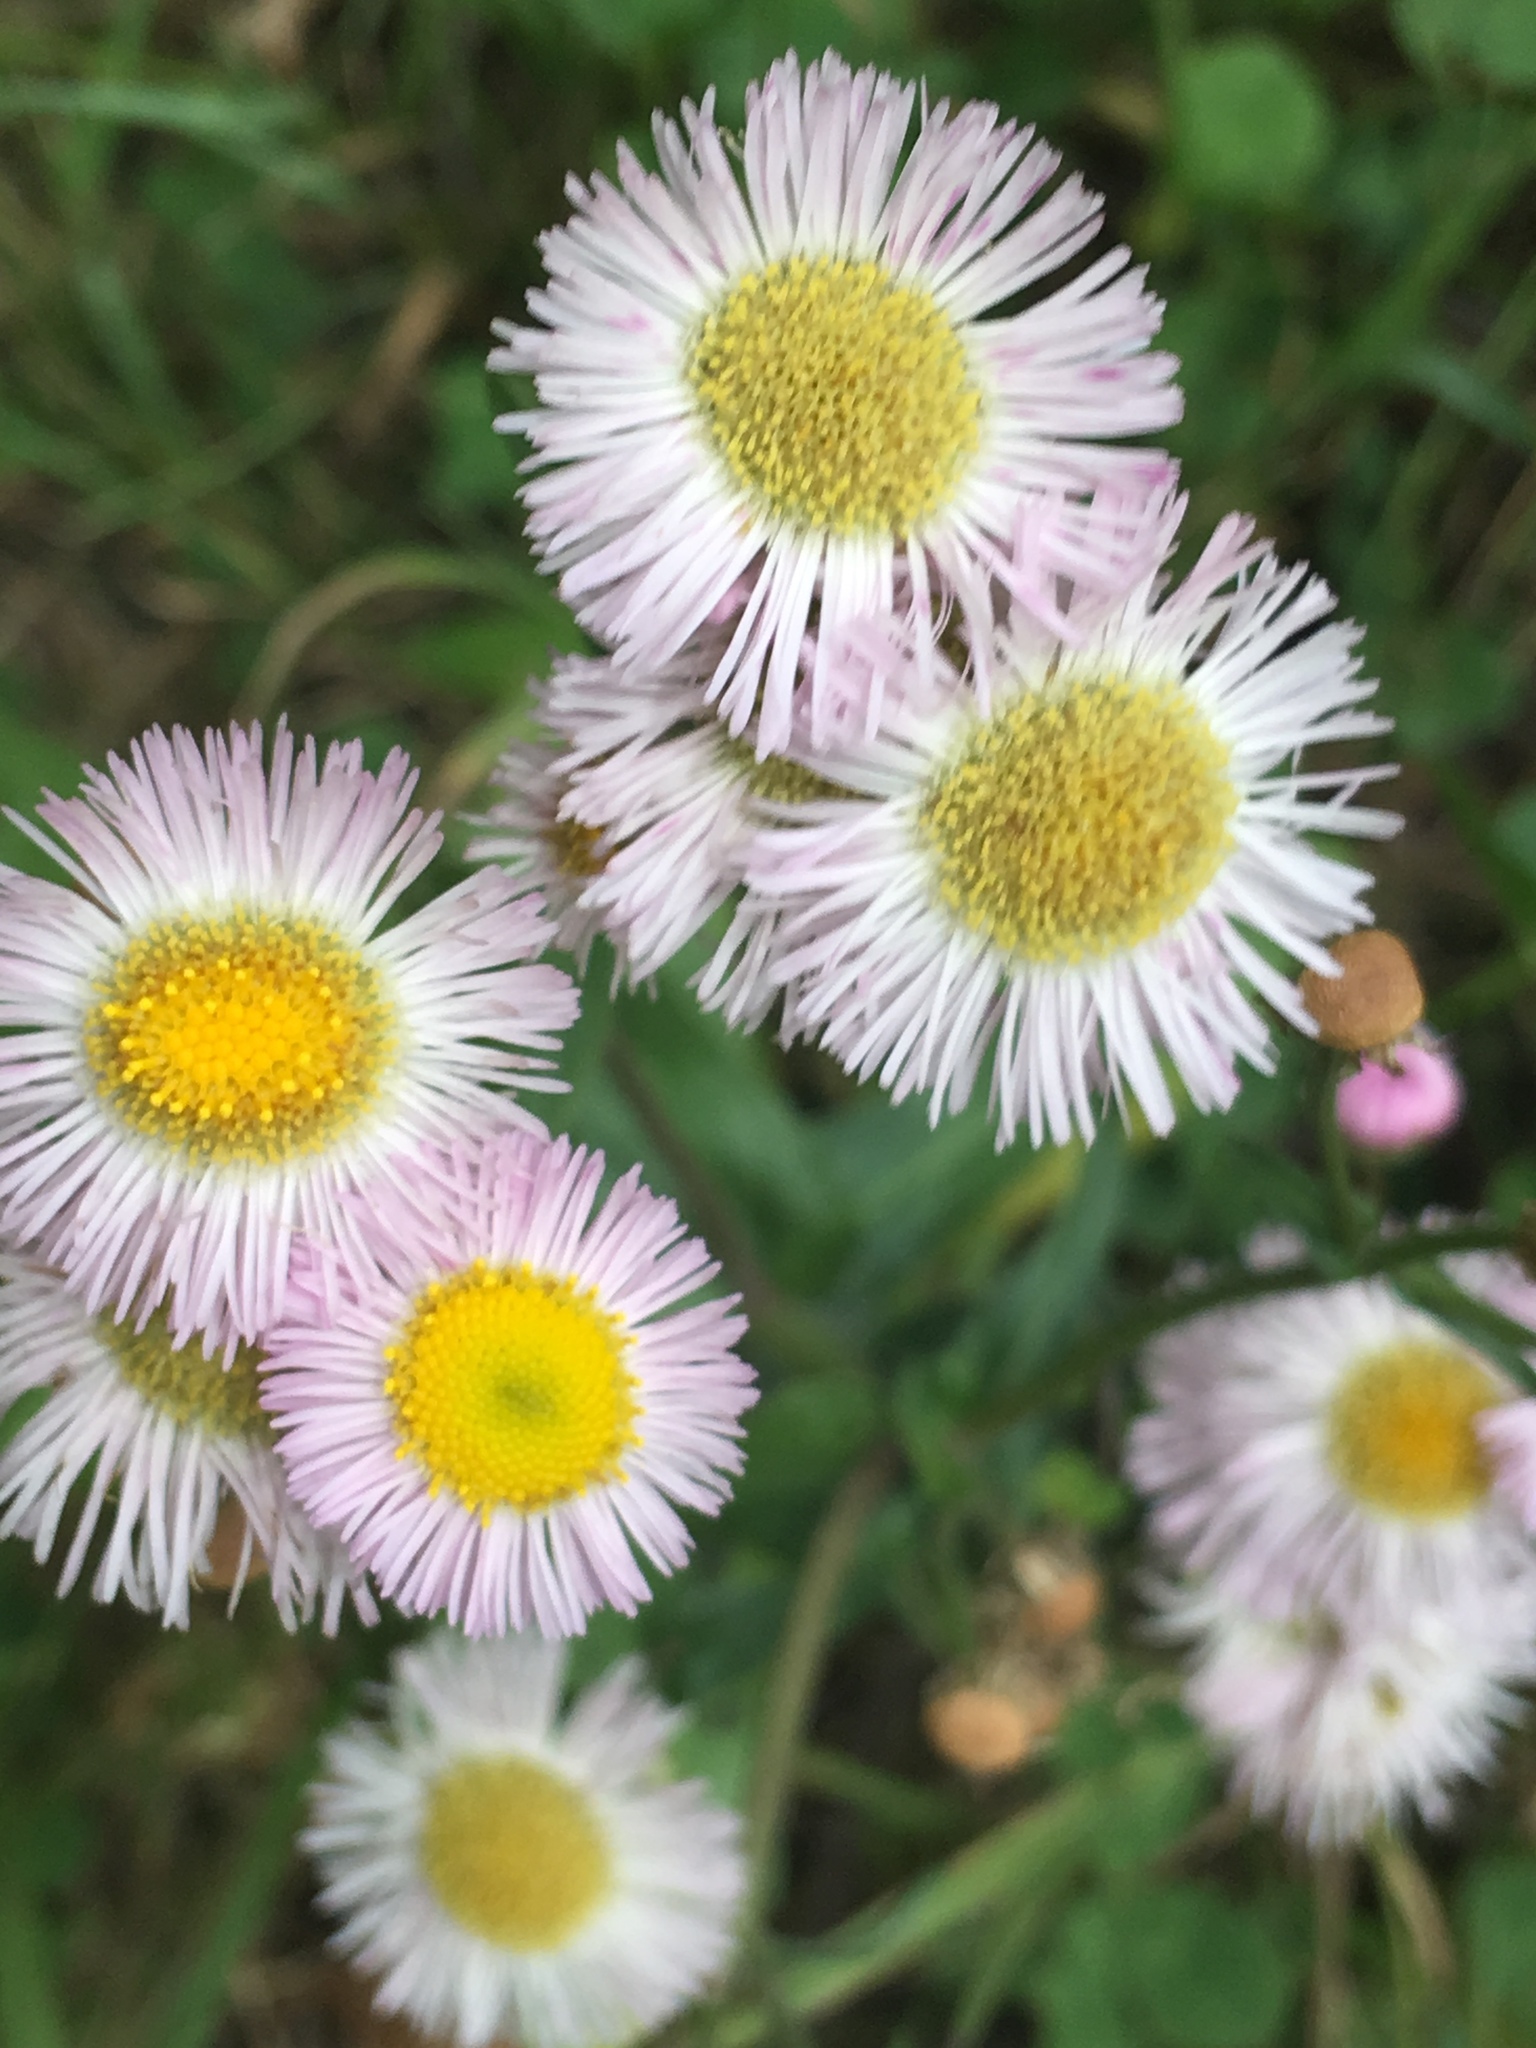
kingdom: Plantae
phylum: Tracheophyta
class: Magnoliopsida
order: Asterales
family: Asteraceae
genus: Erigeron
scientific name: Erigeron philadelphicus
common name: Robin's-plantain
